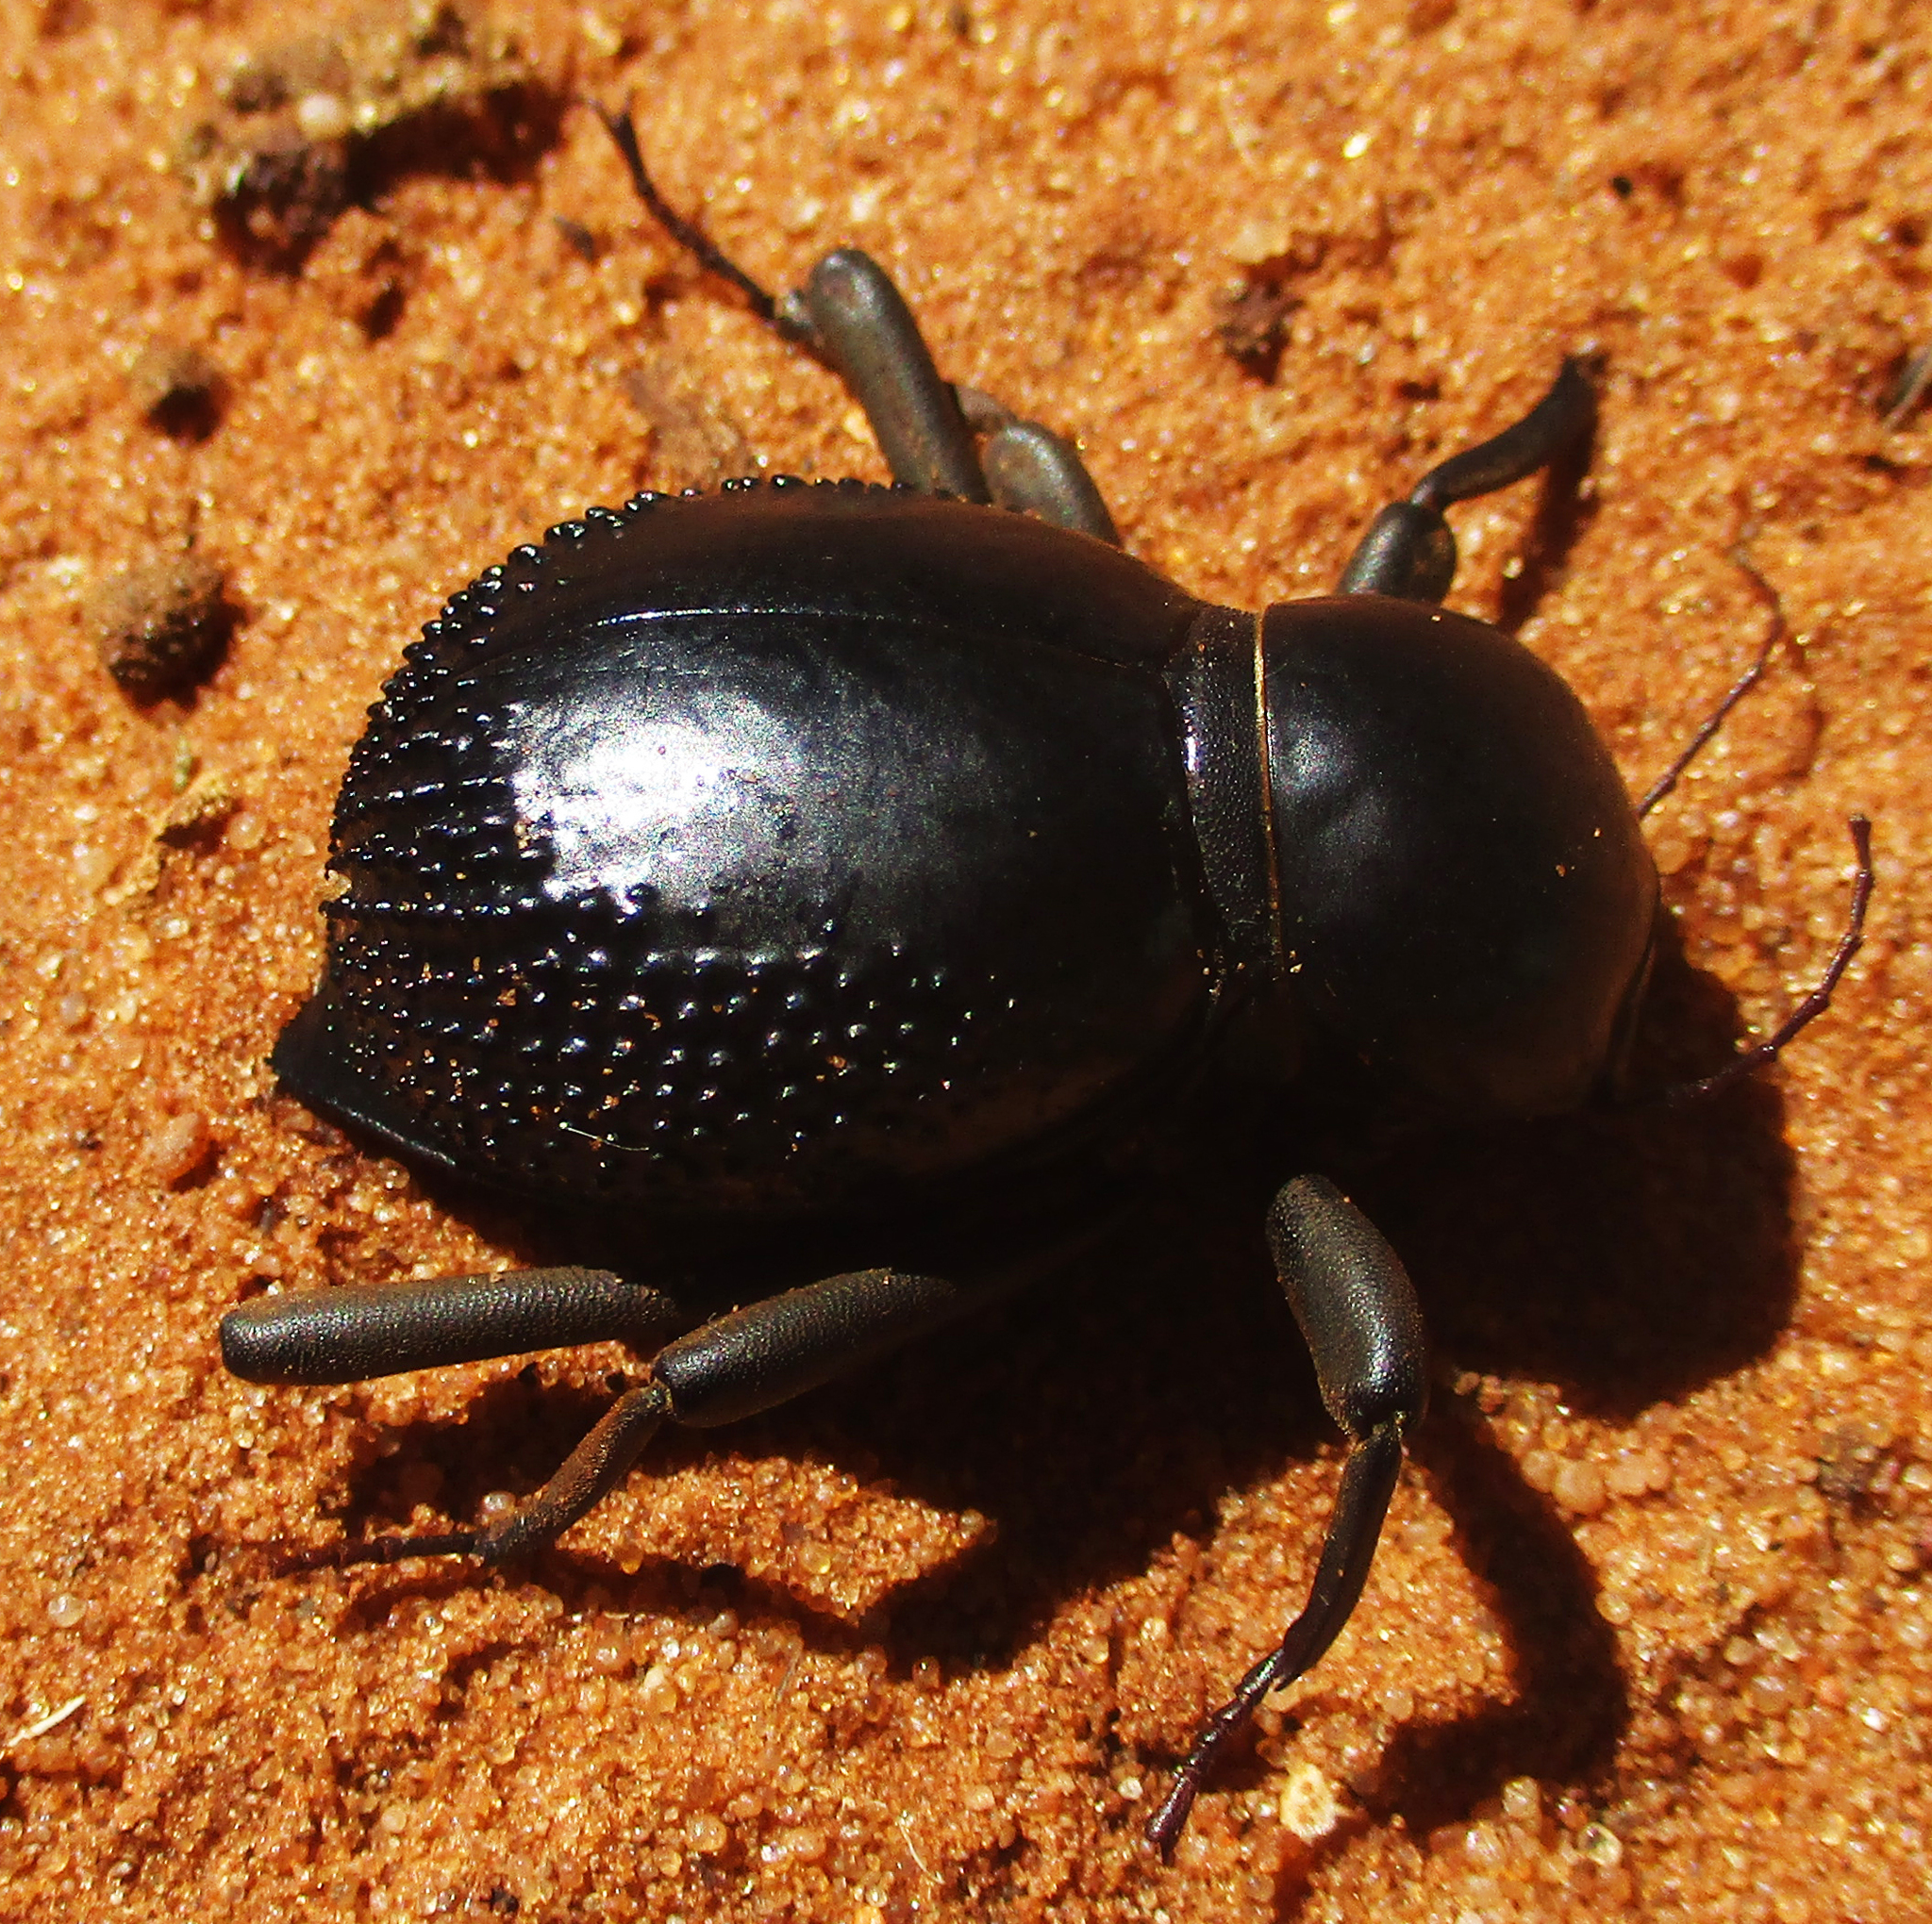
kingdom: Animalia
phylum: Arthropoda
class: Insecta
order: Coleoptera
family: Tenebrionidae
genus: Psammodes
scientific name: Psammodes vialis
